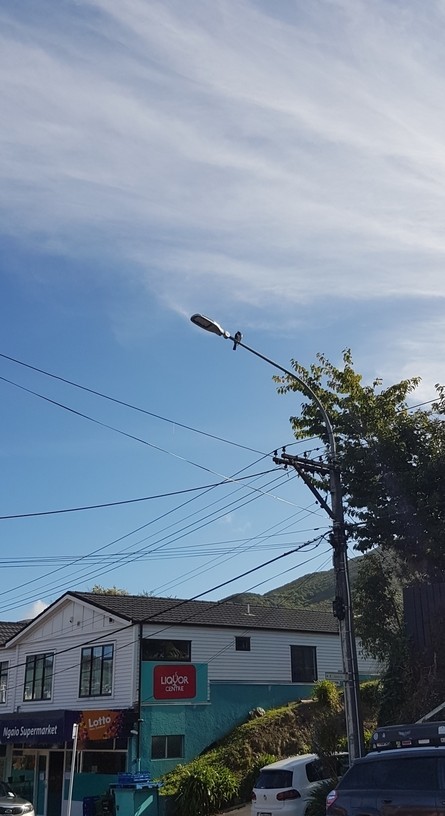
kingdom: Animalia
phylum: Chordata
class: Aves
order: Columbiformes
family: Columbidae
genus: Hemiphaga
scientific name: Hemiphaga novaeseelandiae
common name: New zealand pigeon
